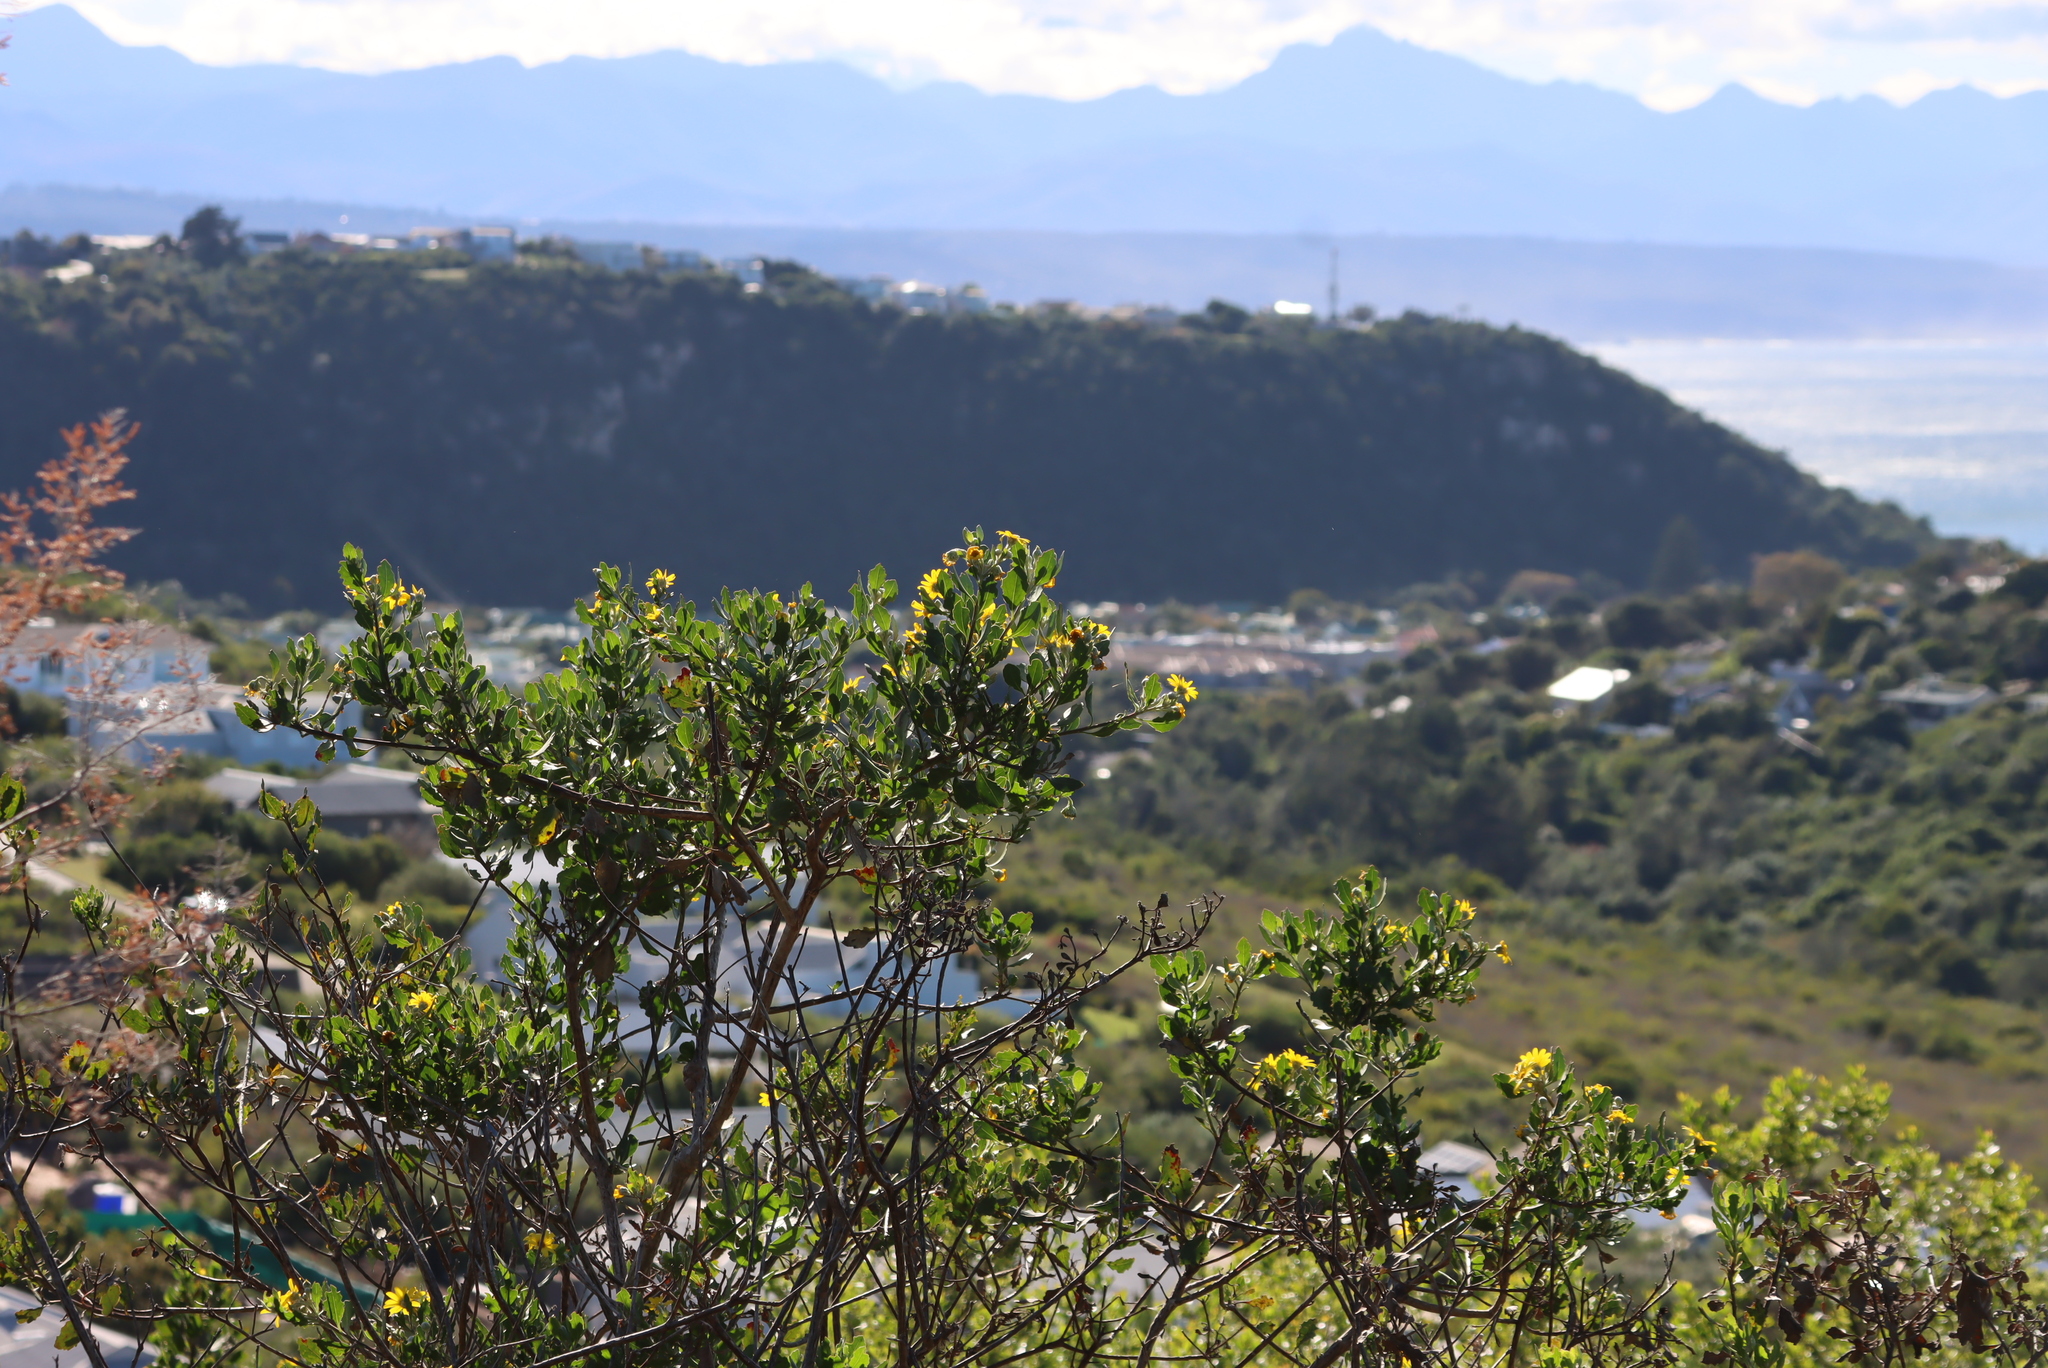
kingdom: Plantae
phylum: Tracheophyta
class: Magnoliopsida
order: Asterales
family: Asteraceae
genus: Osteospermum
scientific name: Osteospermum moniliferum
